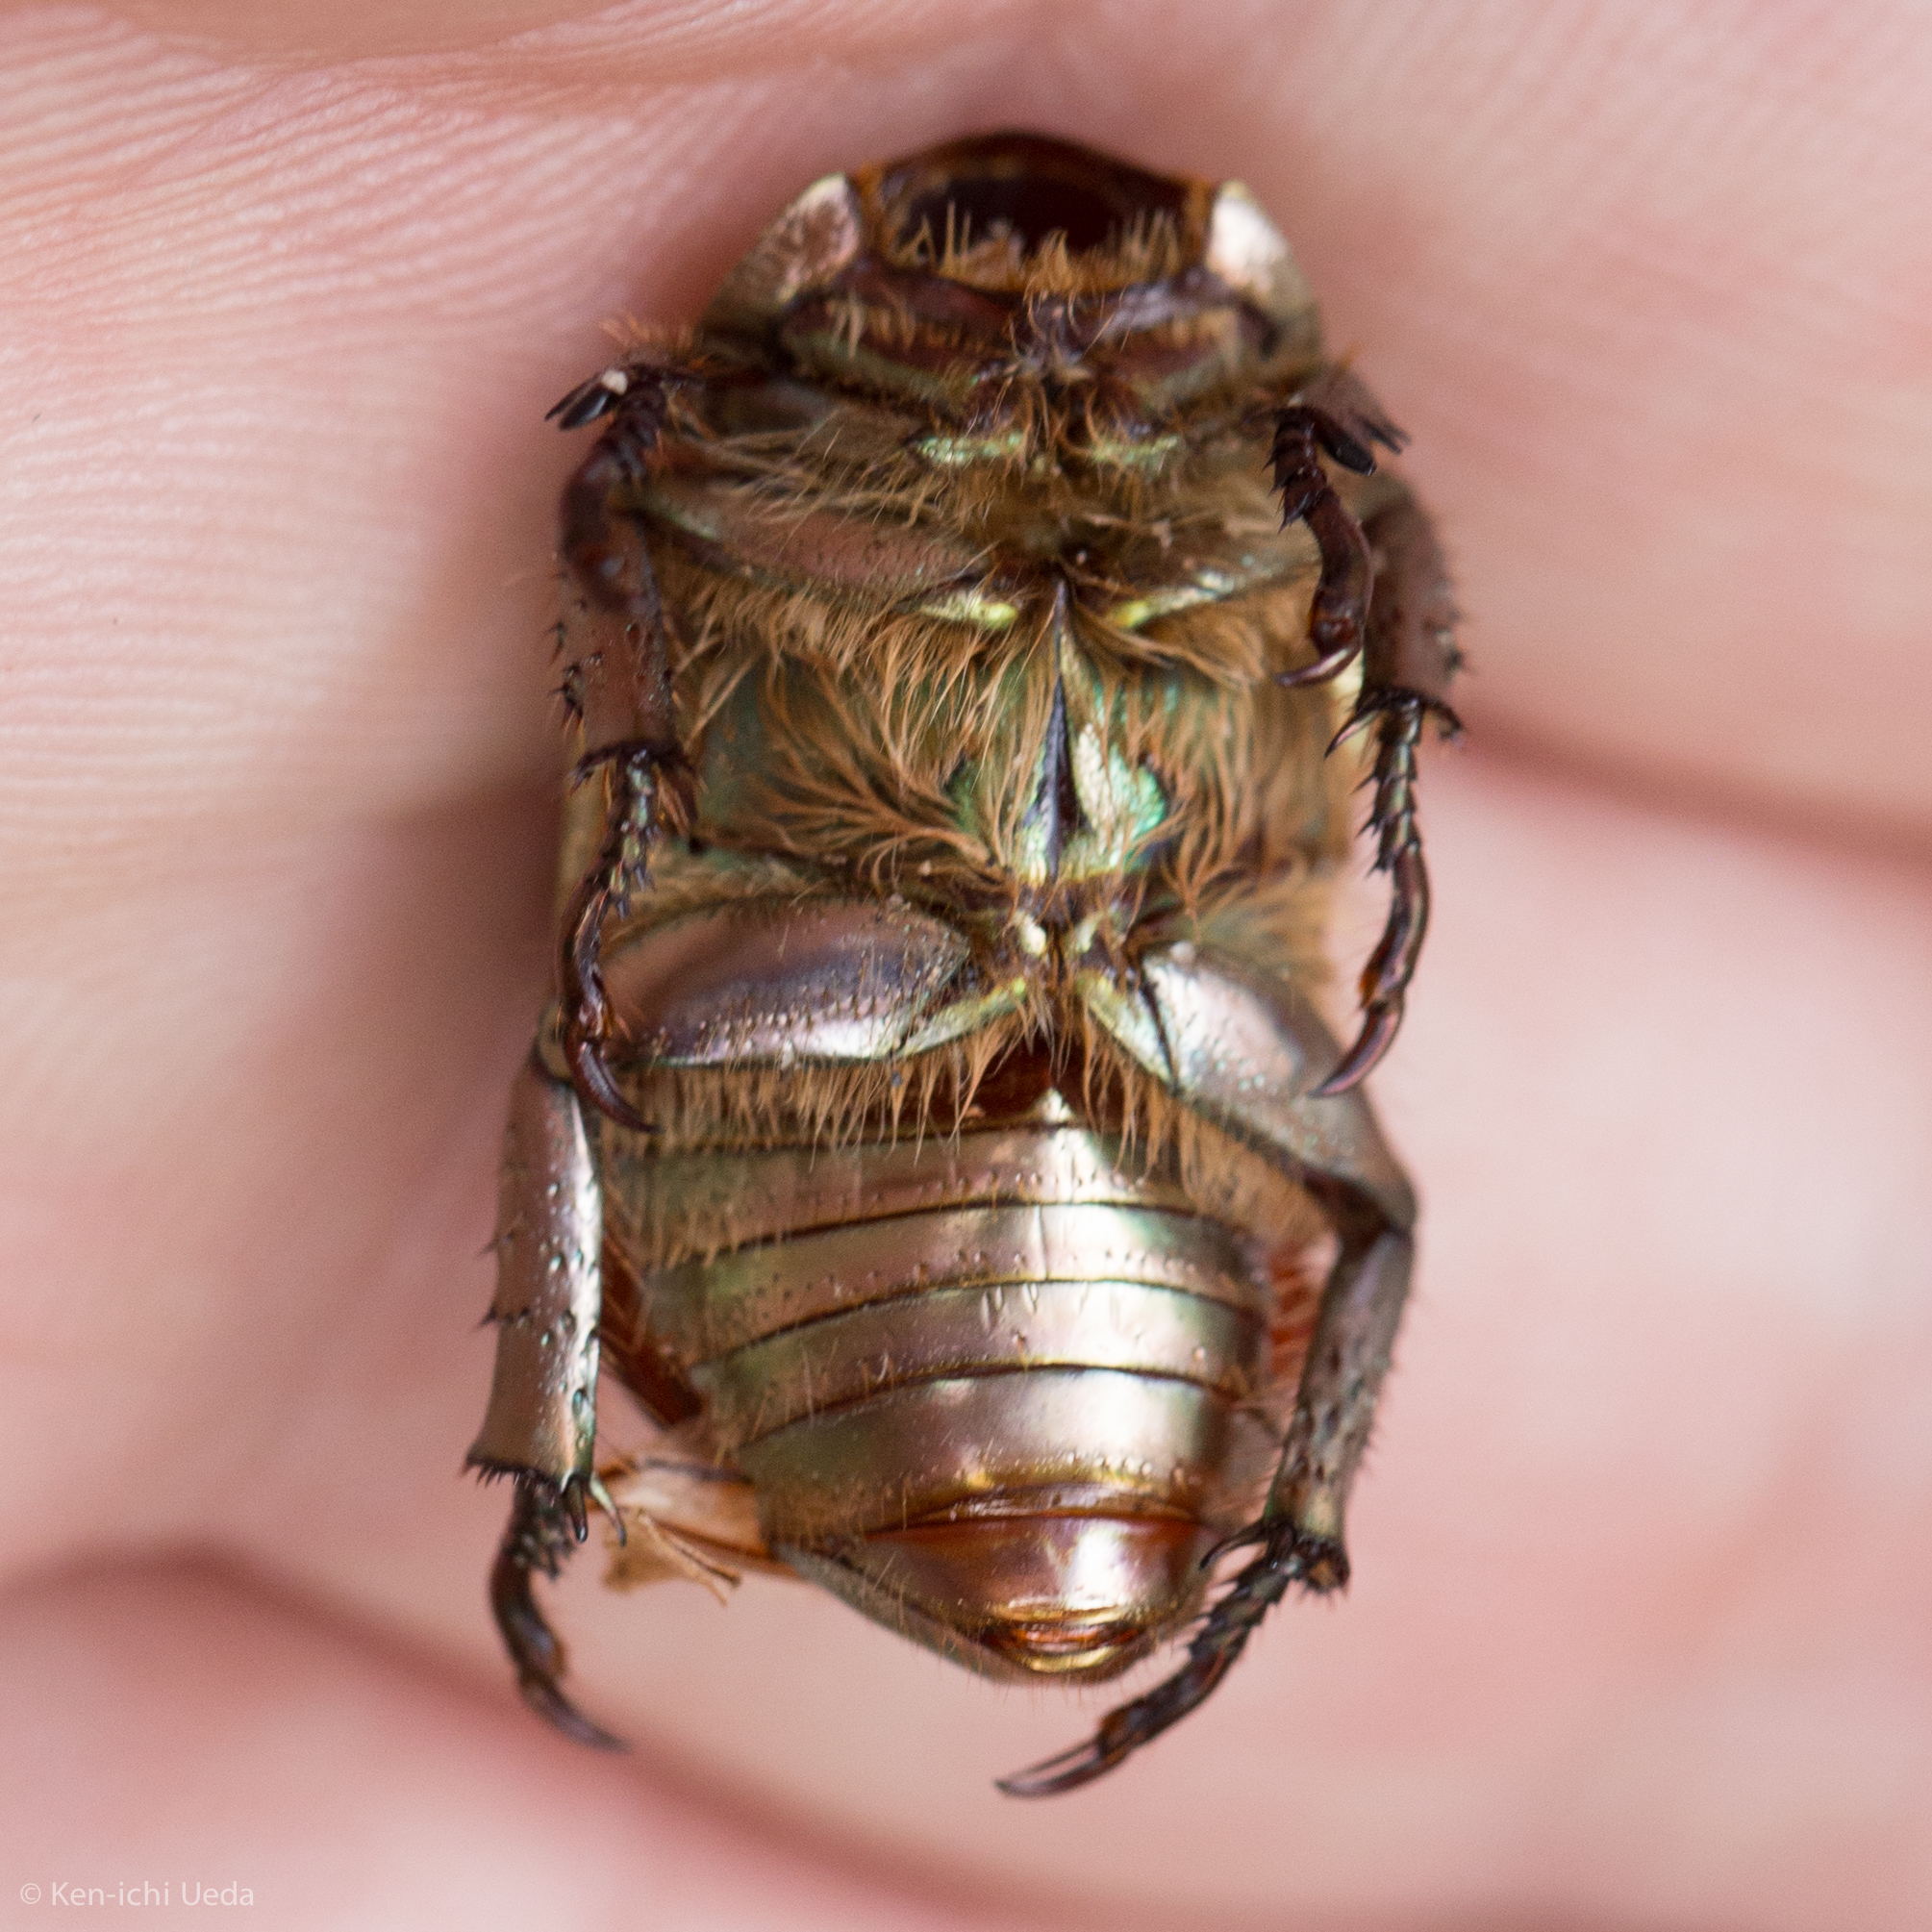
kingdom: Animalia
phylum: Arthropoda
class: Insecta
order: Coleoptera
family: Scarabaeidae
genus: Chrysina
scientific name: Chrysina lecontei
